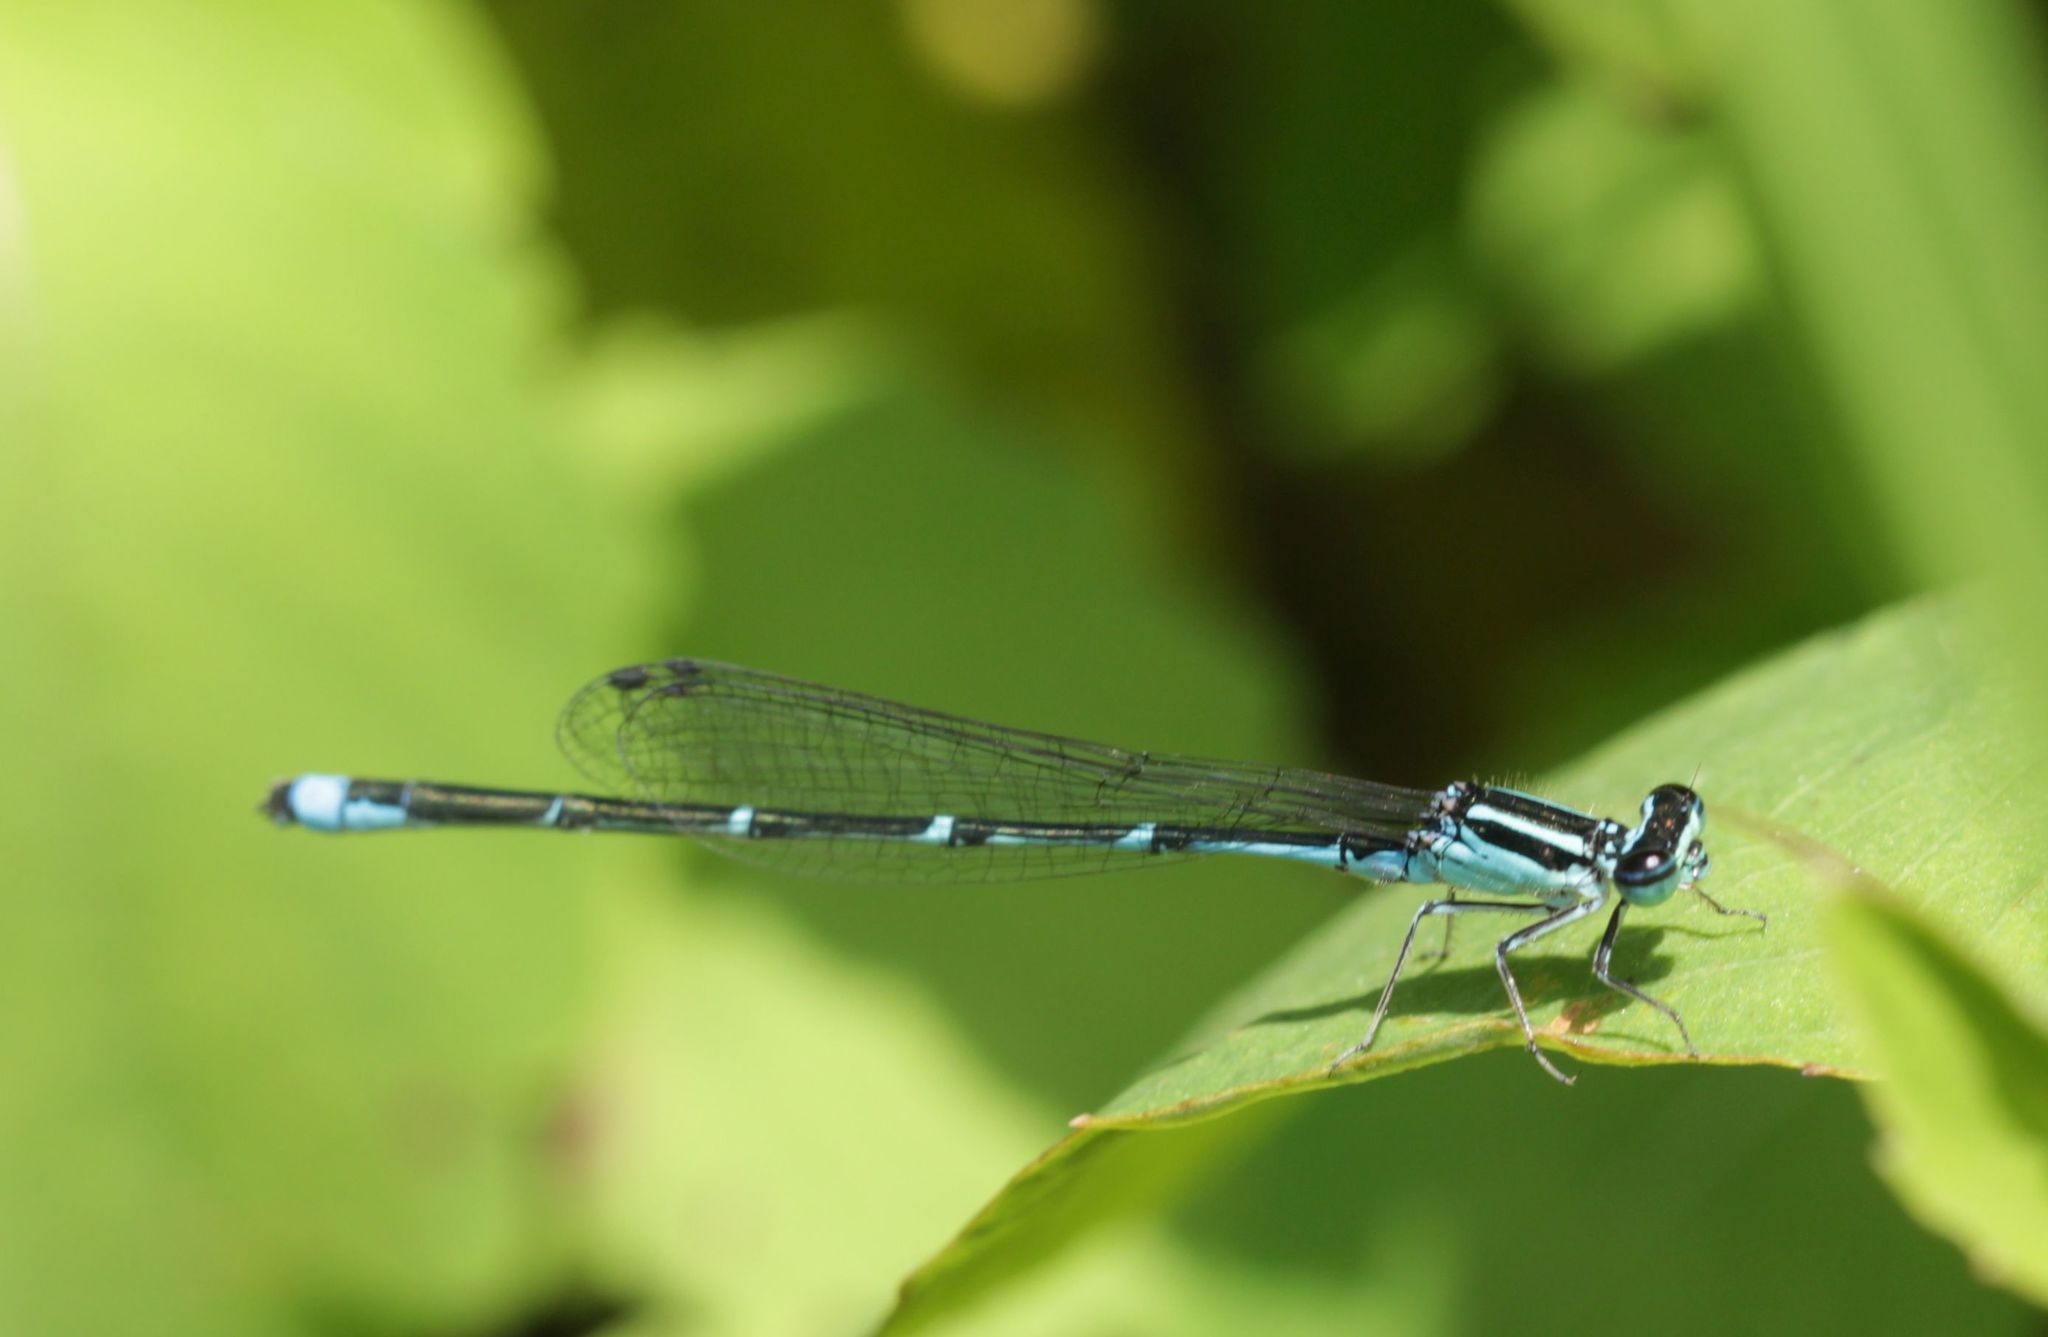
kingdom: Animalia
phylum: Arthropoda
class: Insecta
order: Odonata
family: Coenagrionidae
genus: Enallagma
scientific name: Enallagma exsulans
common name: Stream bluet
